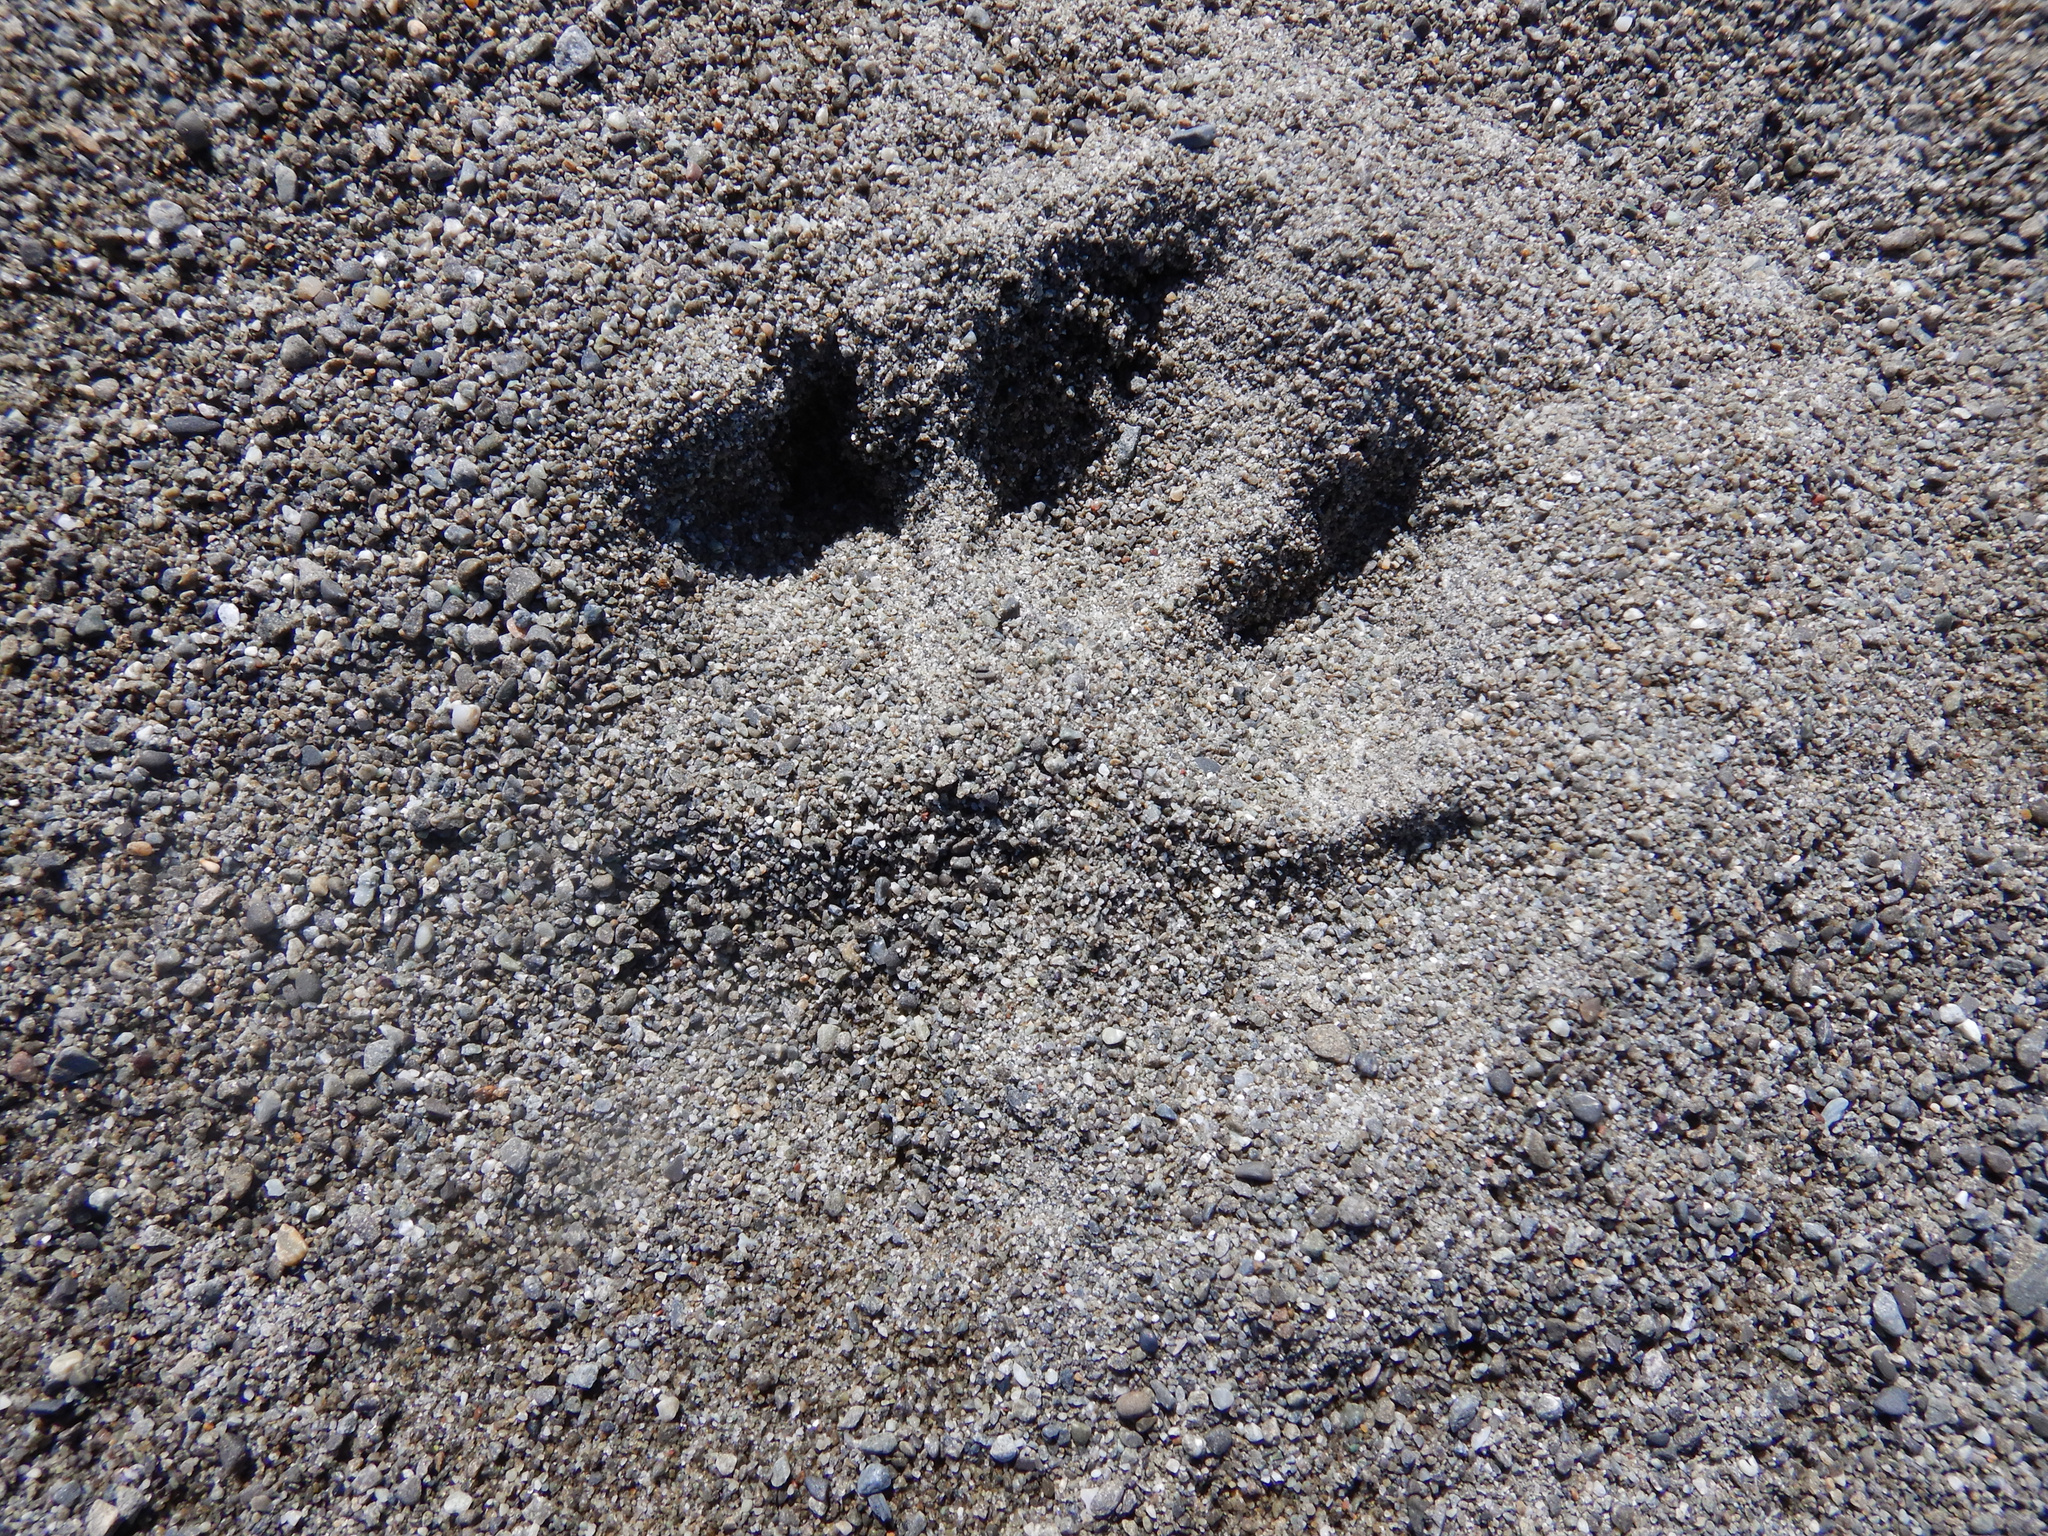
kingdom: Animalia
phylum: Chordata
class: Mammalia
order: Carnivora
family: Canidae
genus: Canis
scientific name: Canis lupus
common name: Gray wolf
